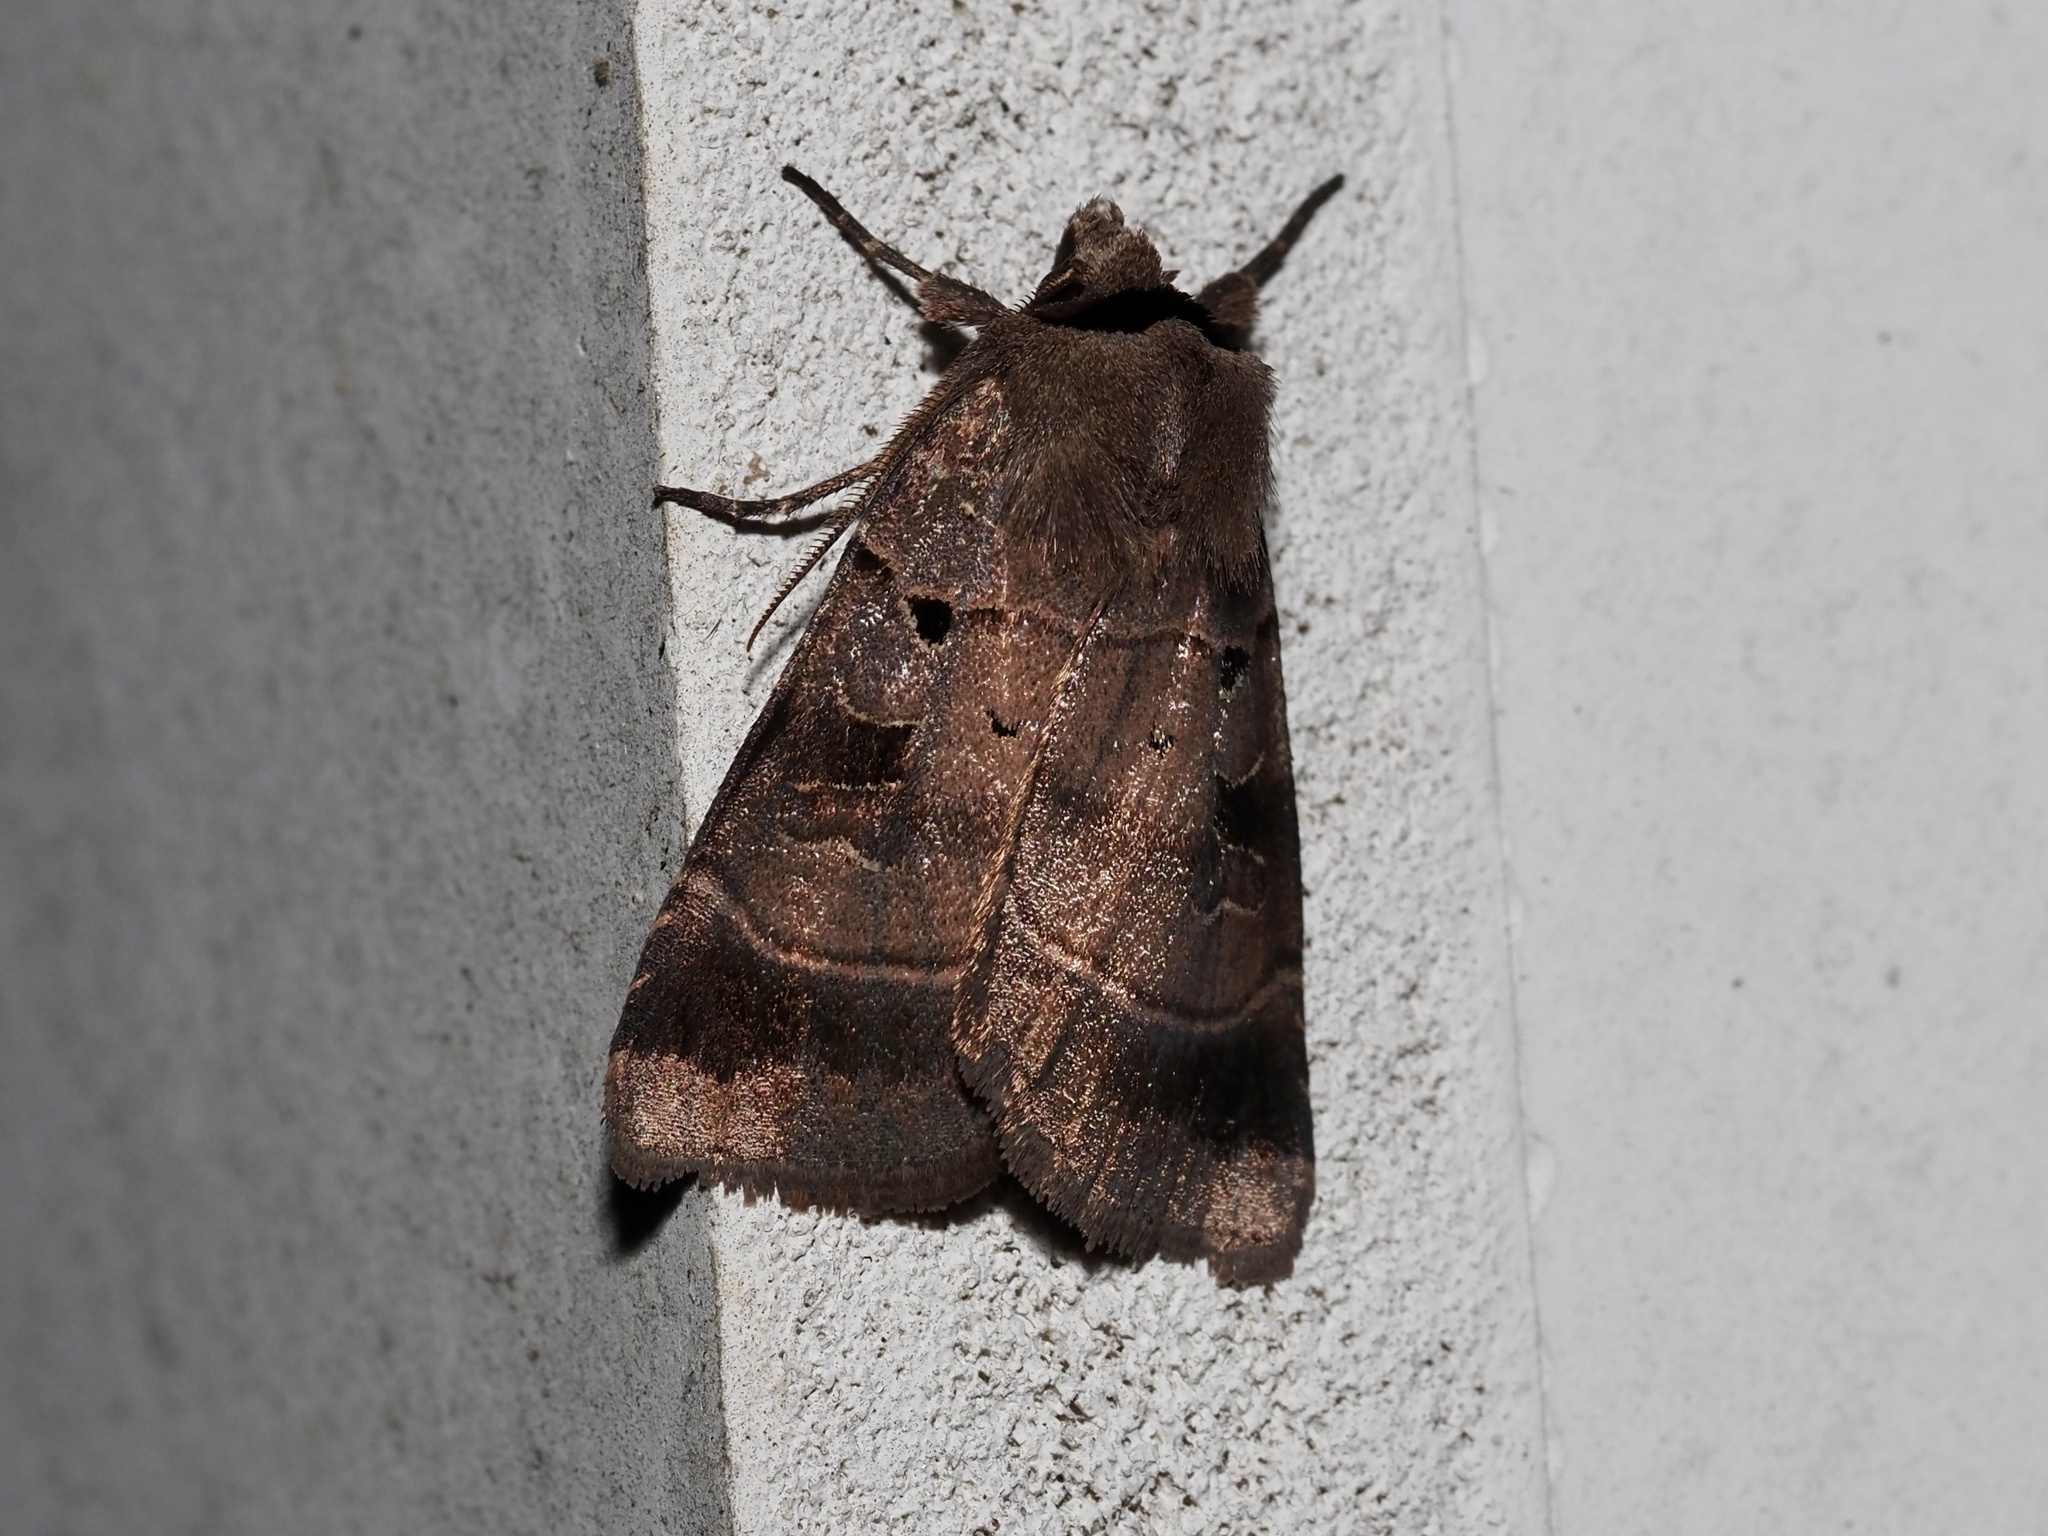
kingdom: Animalia
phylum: Arthropoda
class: Insecta
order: Lepidoptera
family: Noctuidae
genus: Agnorisma
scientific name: Agnorisma badinodis
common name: Pale-banded dart
